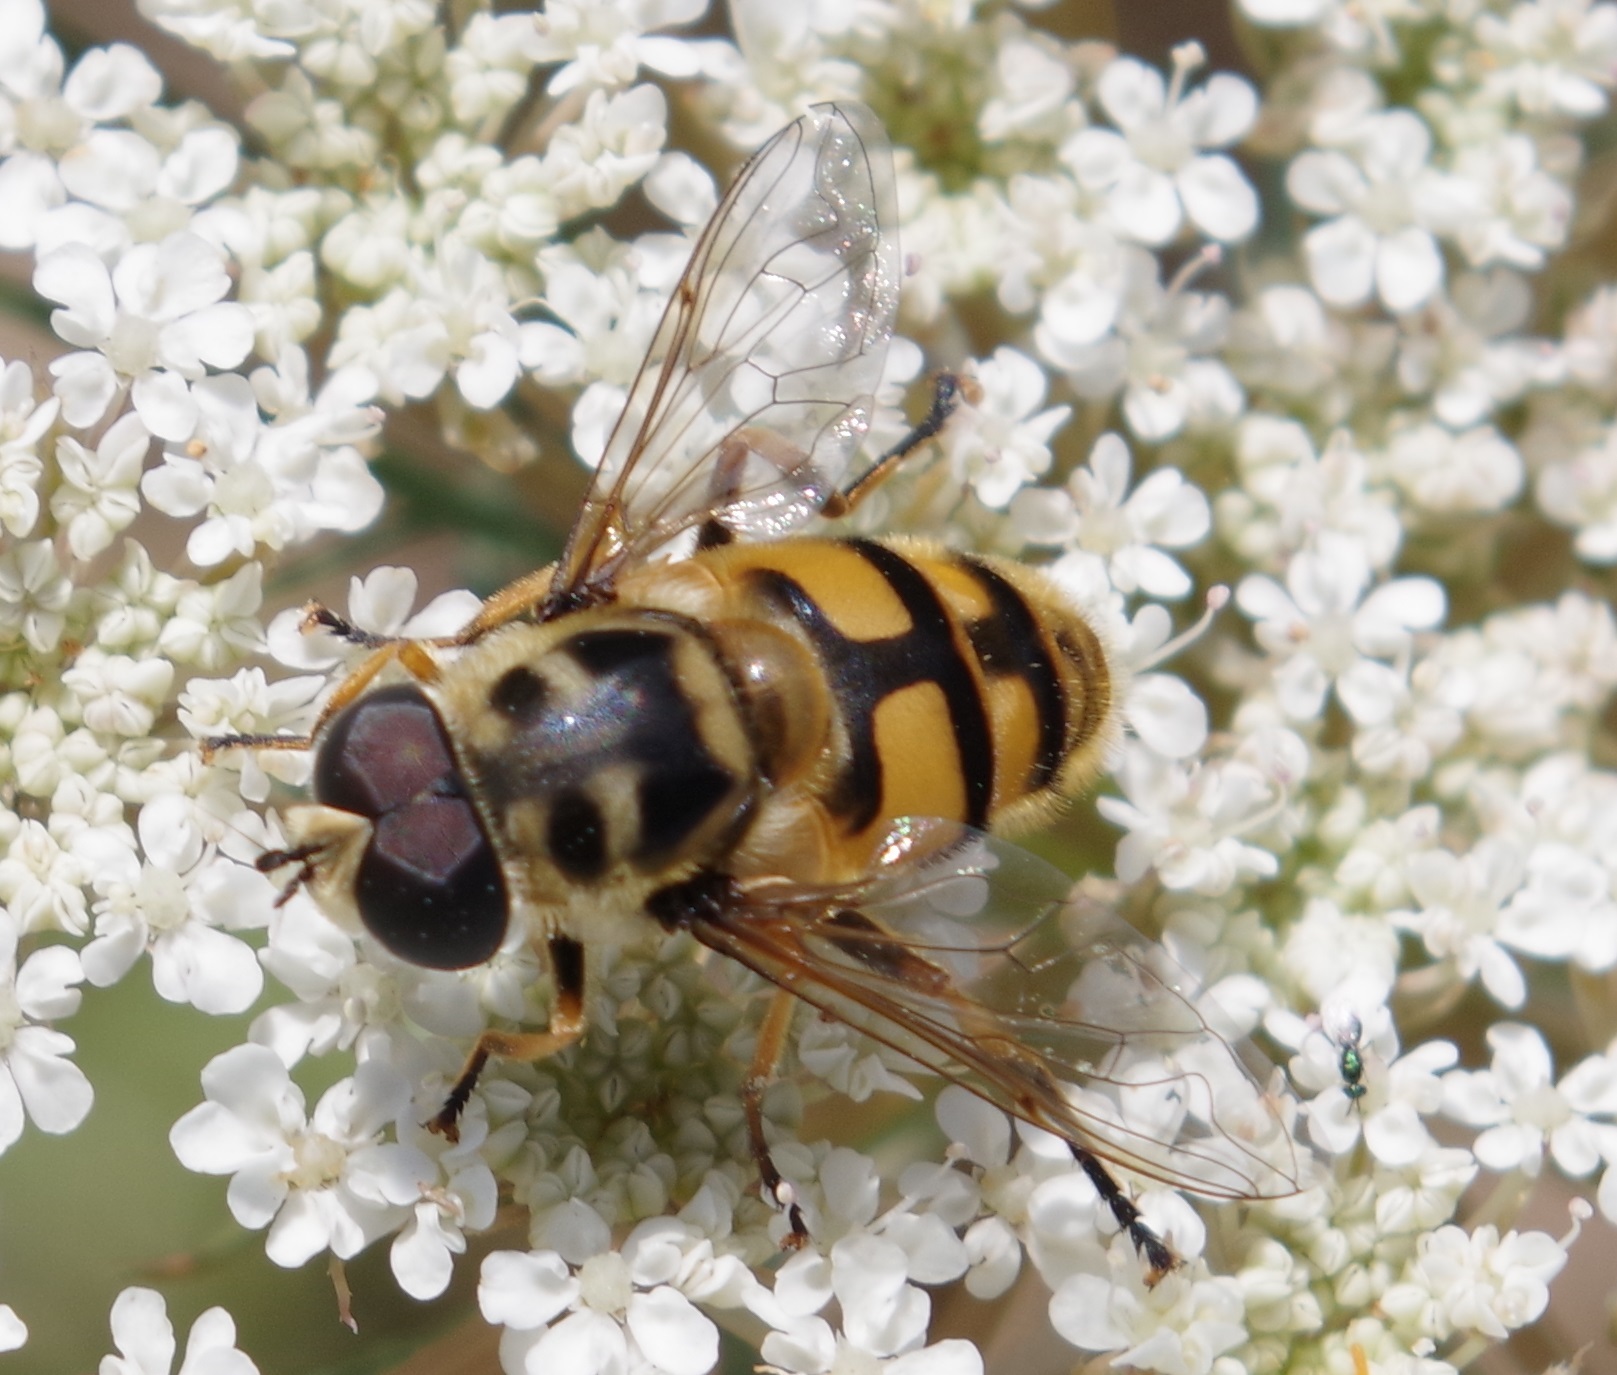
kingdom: Animalia
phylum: Arthropoda
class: Insecta
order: Diptera
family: Syrphidae
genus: Myathropa
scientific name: Myathropa florea
